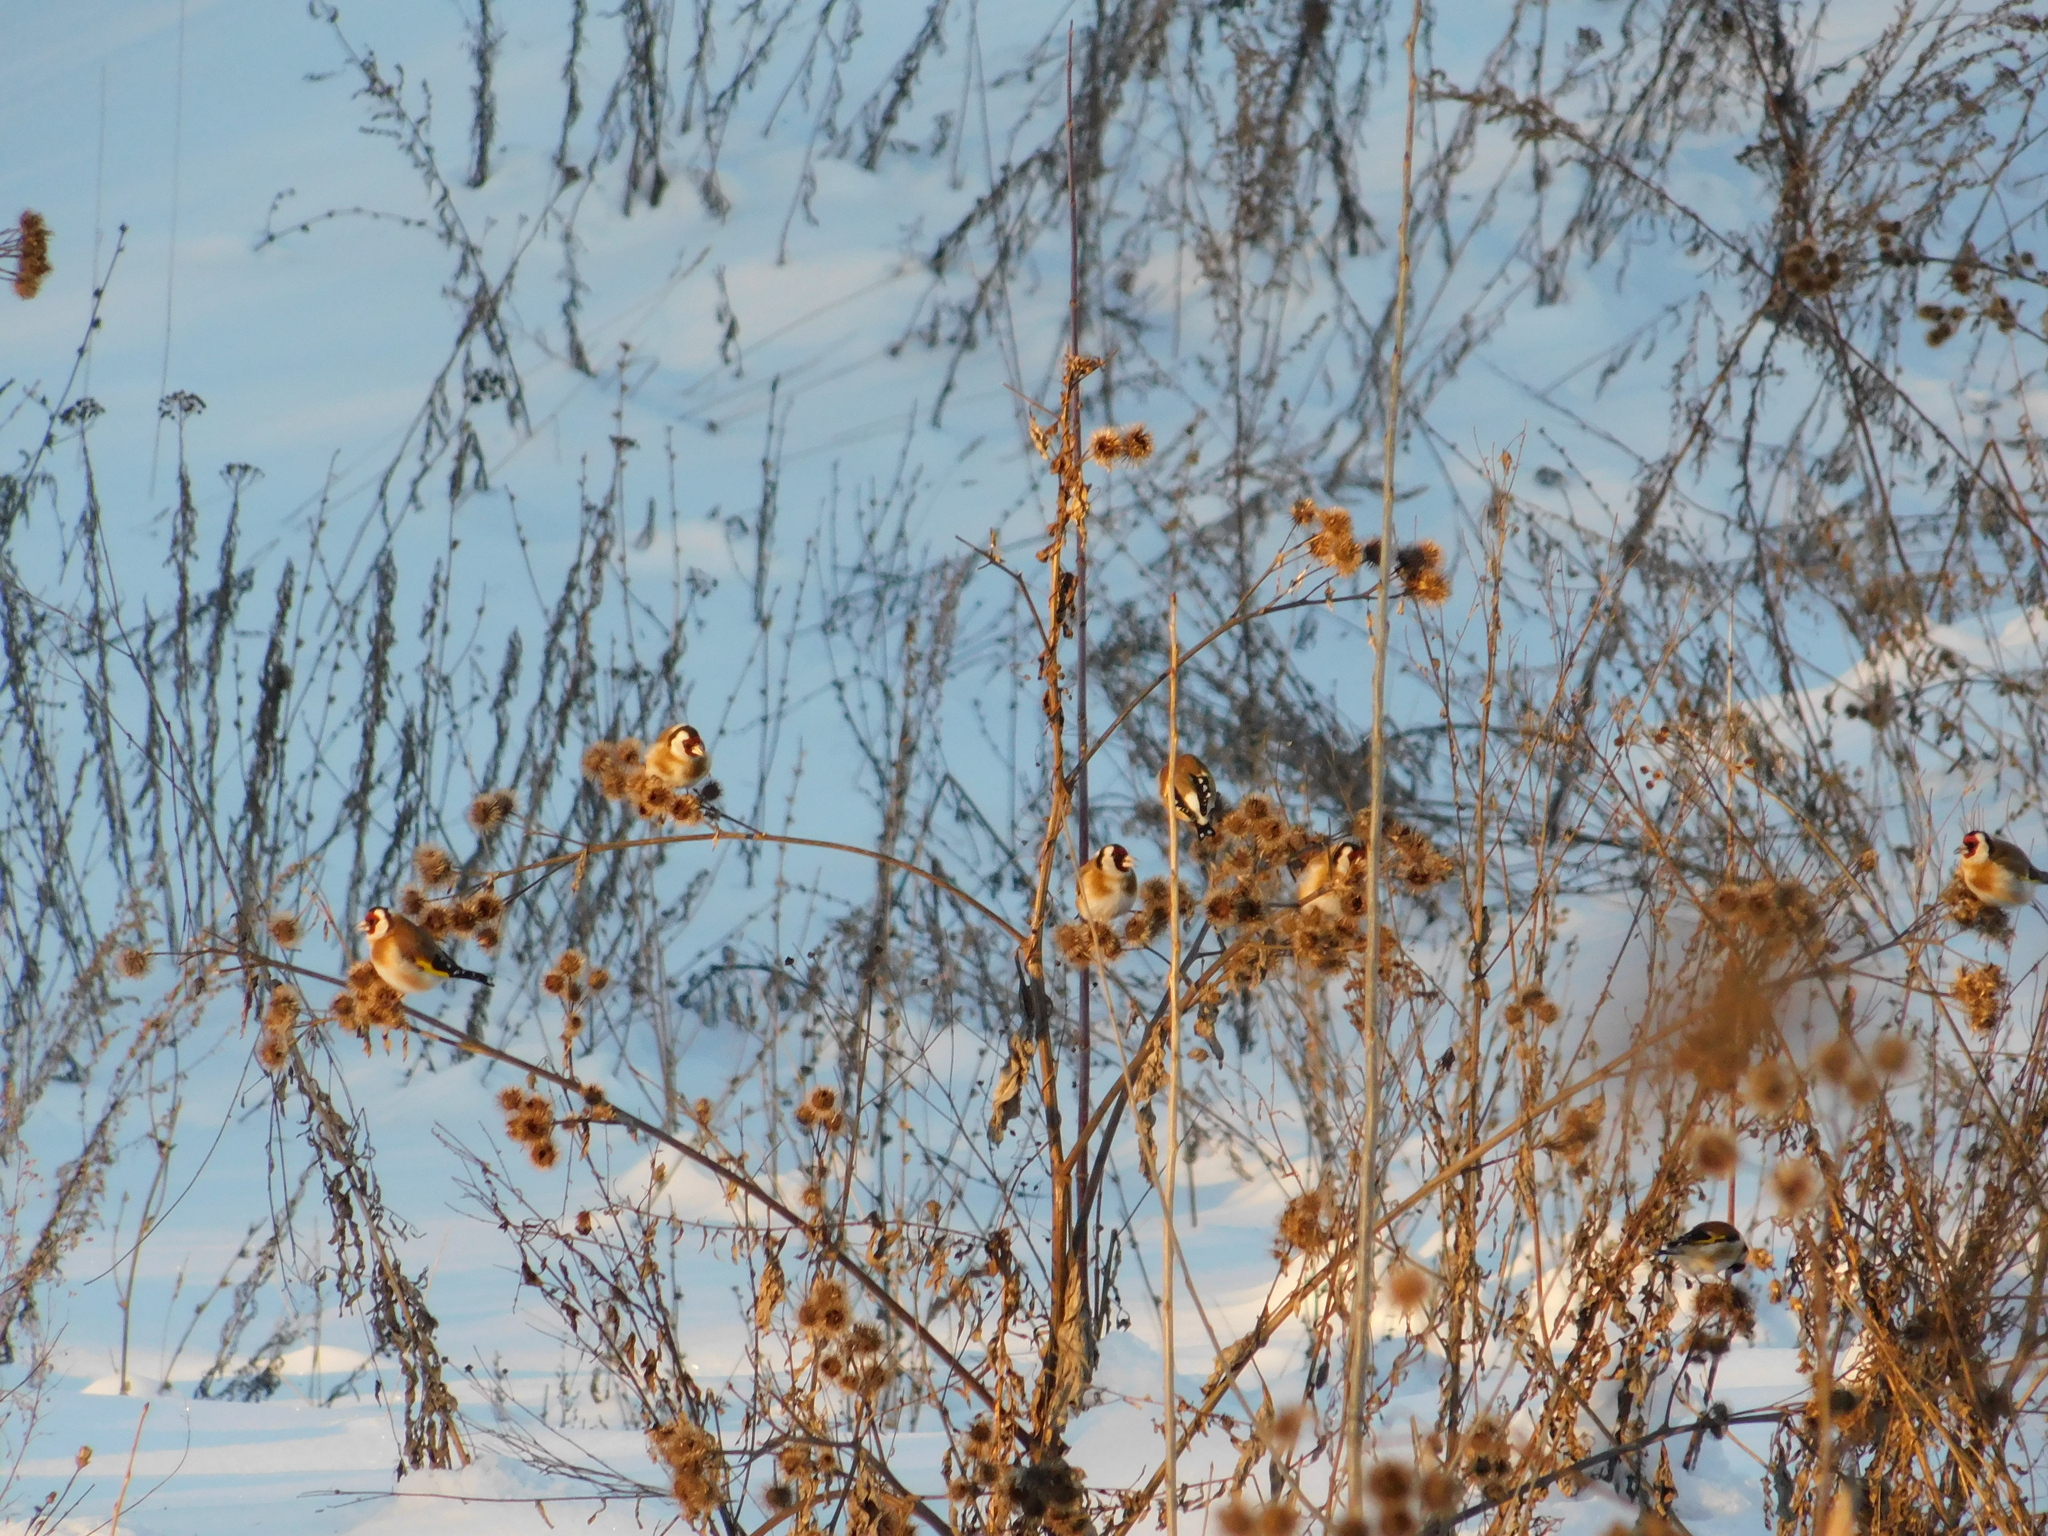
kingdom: Animalia
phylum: Chordata
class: Aves
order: Passeriformes
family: Fringillidae
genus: Carduelis
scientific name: Carduelis carduelis
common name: European goldfinch
